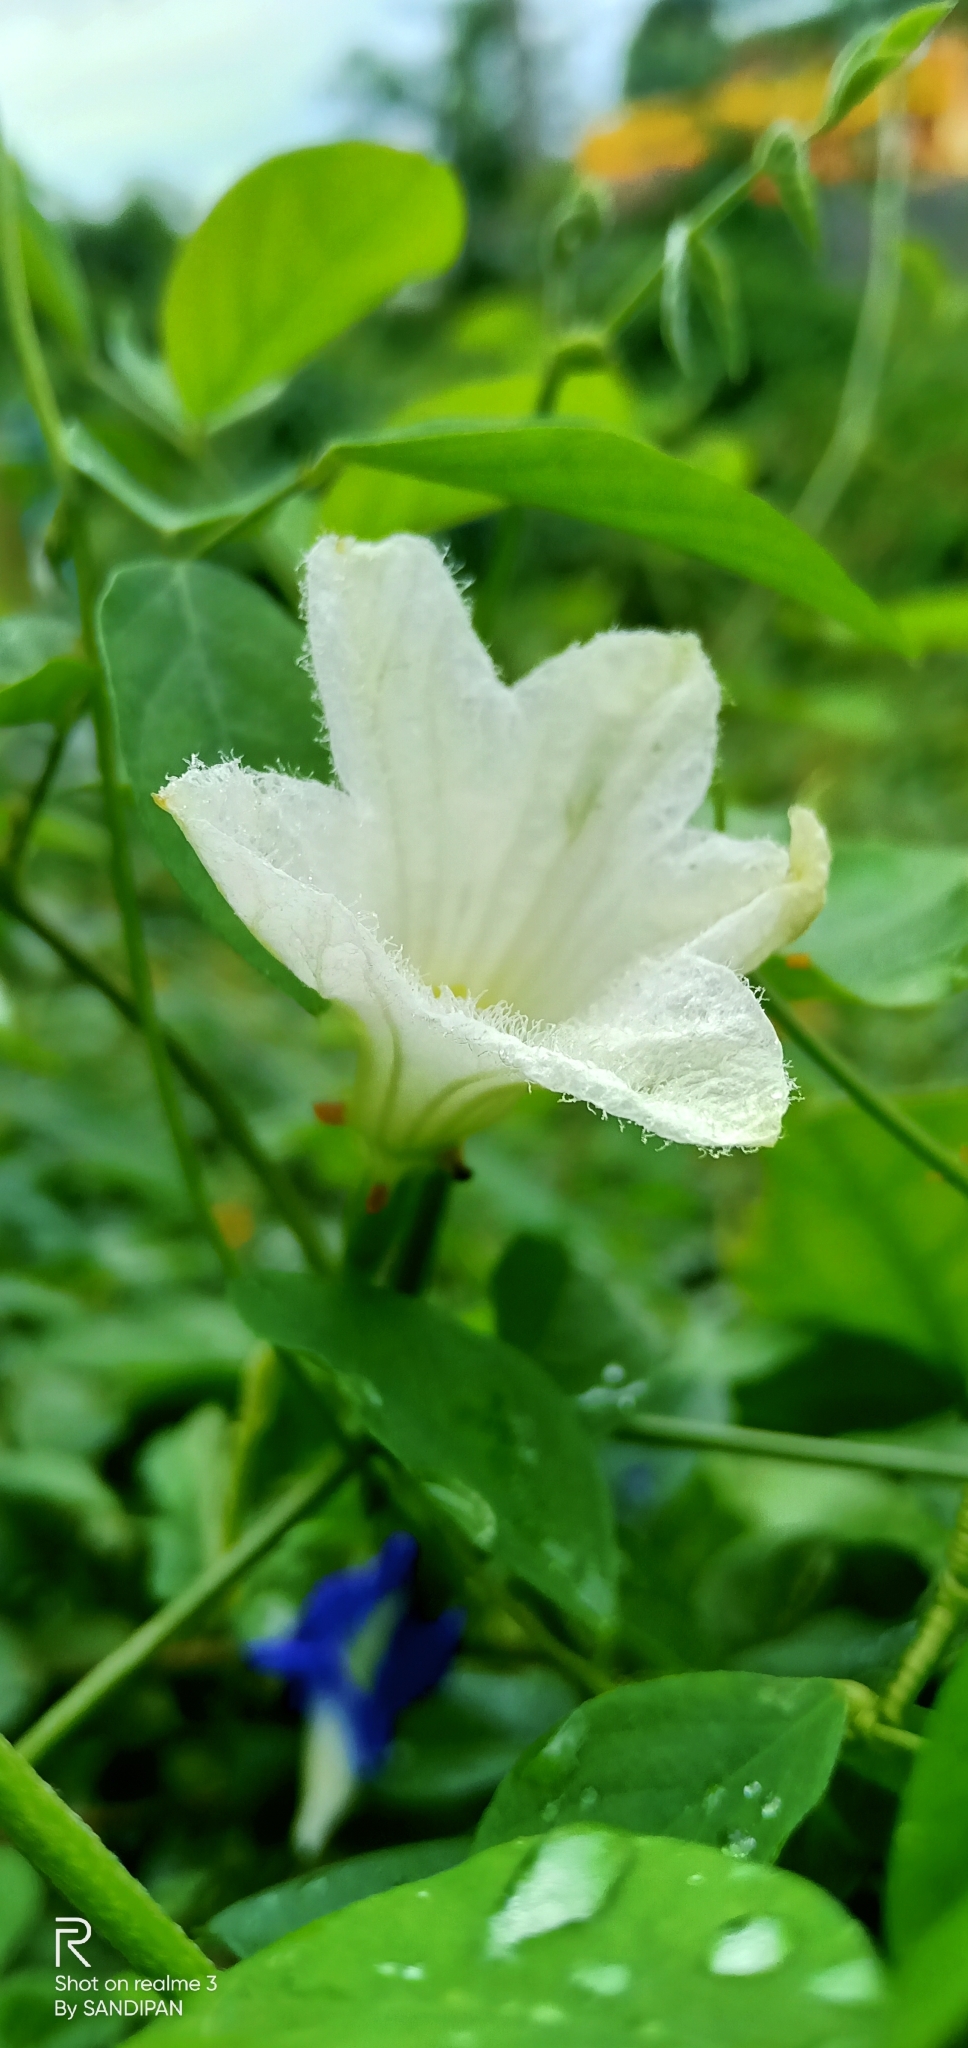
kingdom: Plantae
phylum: Tracheophyta
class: Magnoliopsida
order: Cucurbitales
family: Cucurbitaceae
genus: Coccinia
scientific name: Coccinia grandis
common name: Ivy gourd
